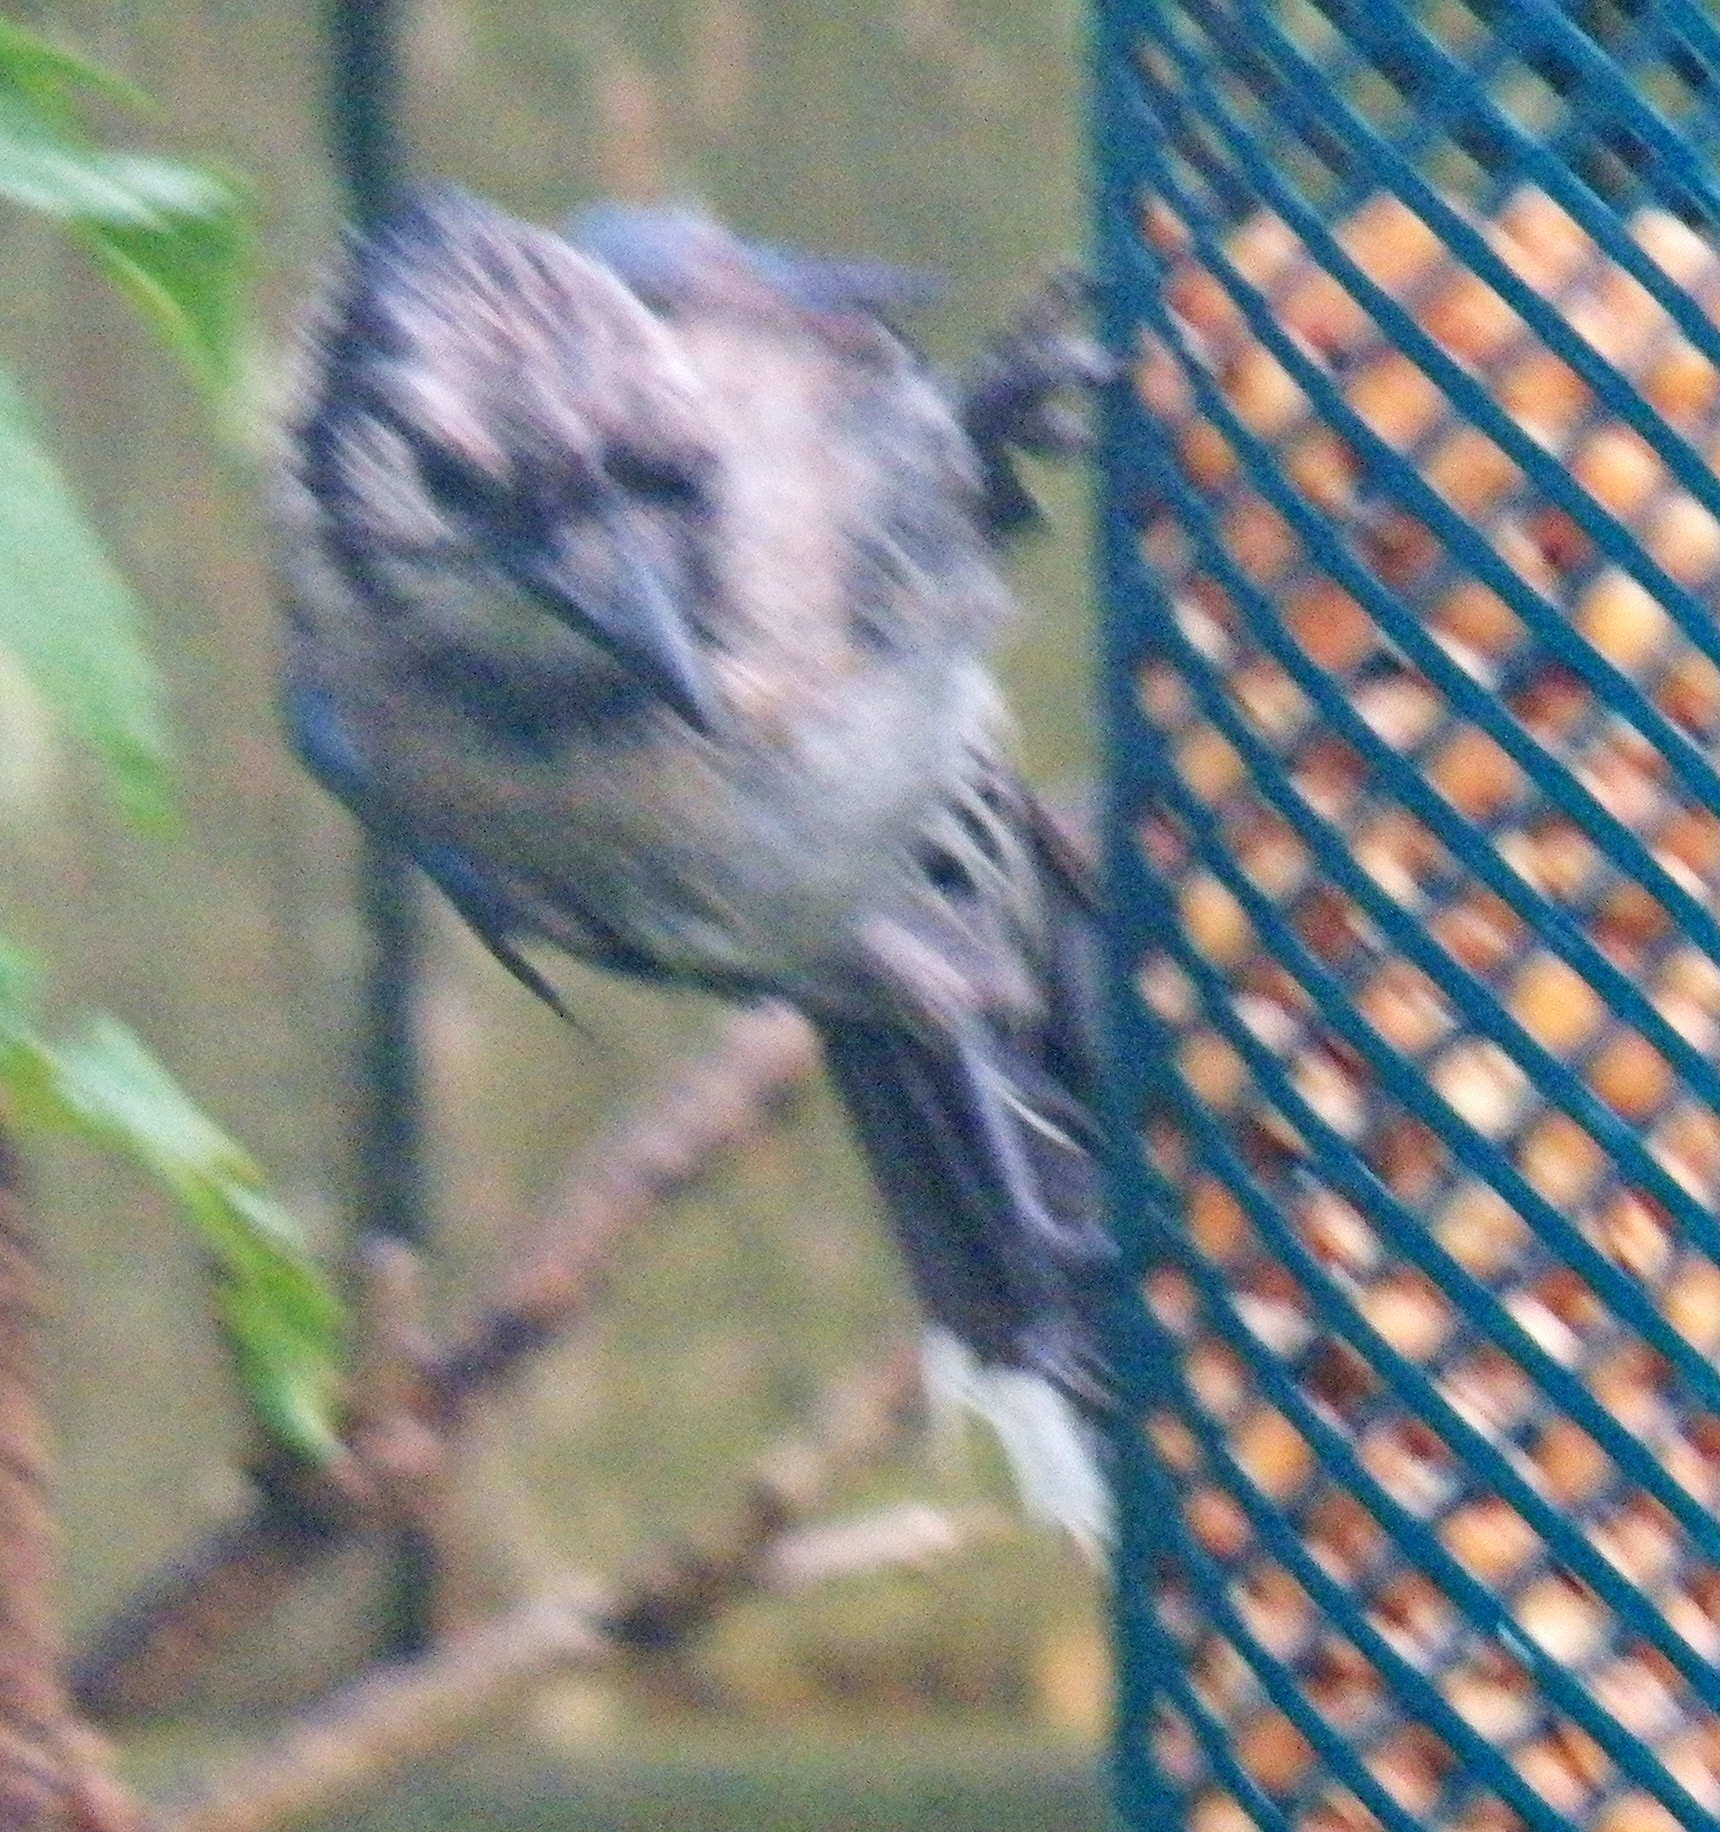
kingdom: Animalia
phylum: Chordata
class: Aves
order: Passeriformes
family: Corvidae
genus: Cyanocitta
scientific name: Cyanocitta cristata
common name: Blue jay
